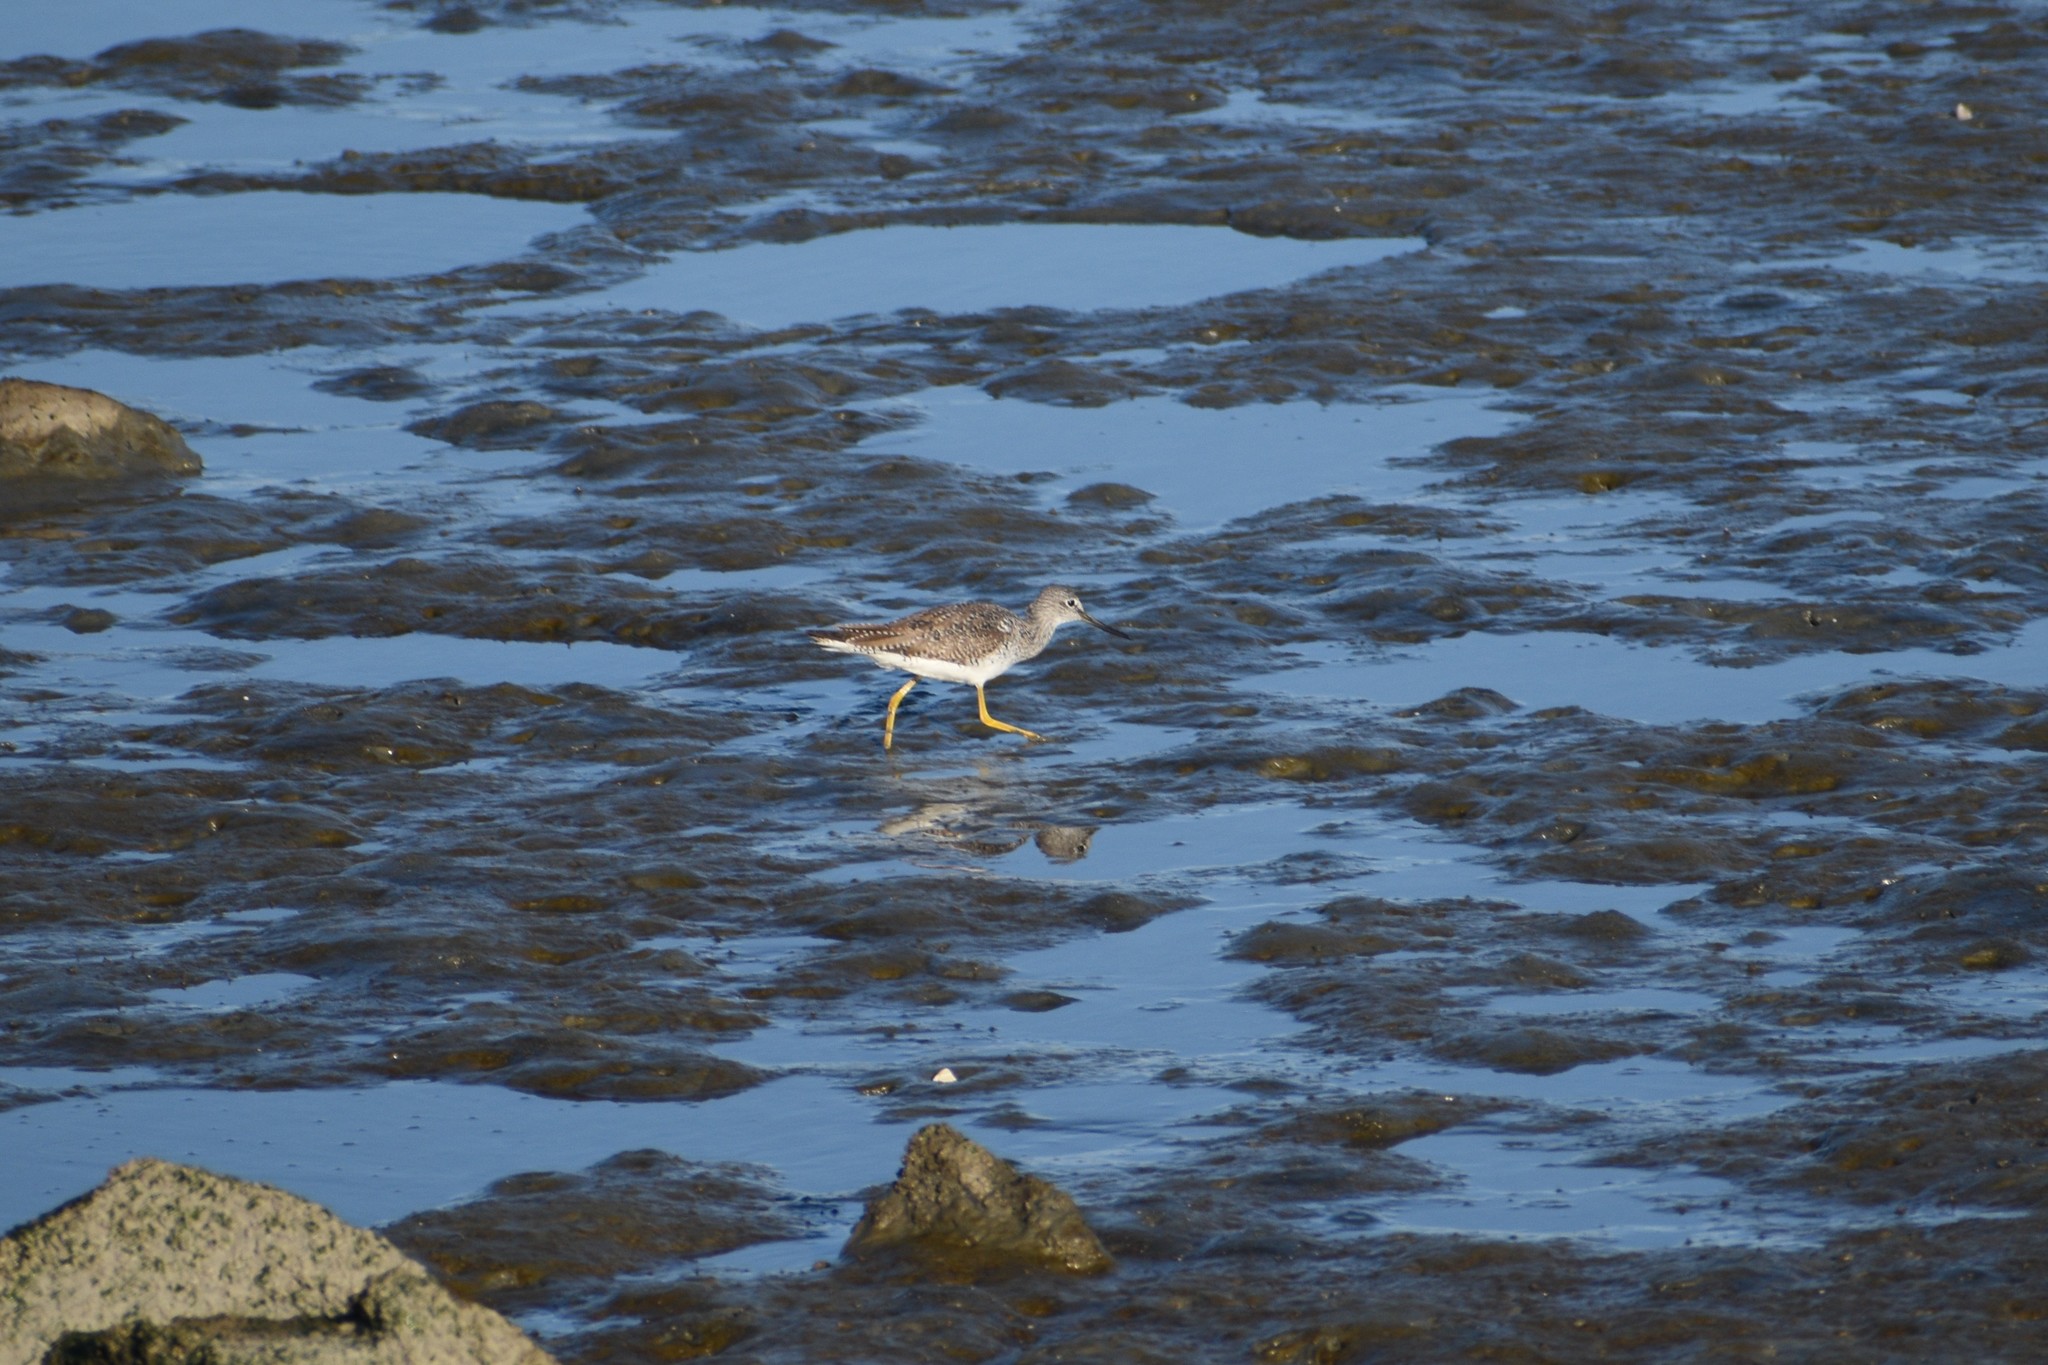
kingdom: Animalia
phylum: Chordata
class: Aves
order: Charadriiformes
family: Scolopacidae
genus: Tringa
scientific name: Tringa melanoleuca
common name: Greater yellowlegs
